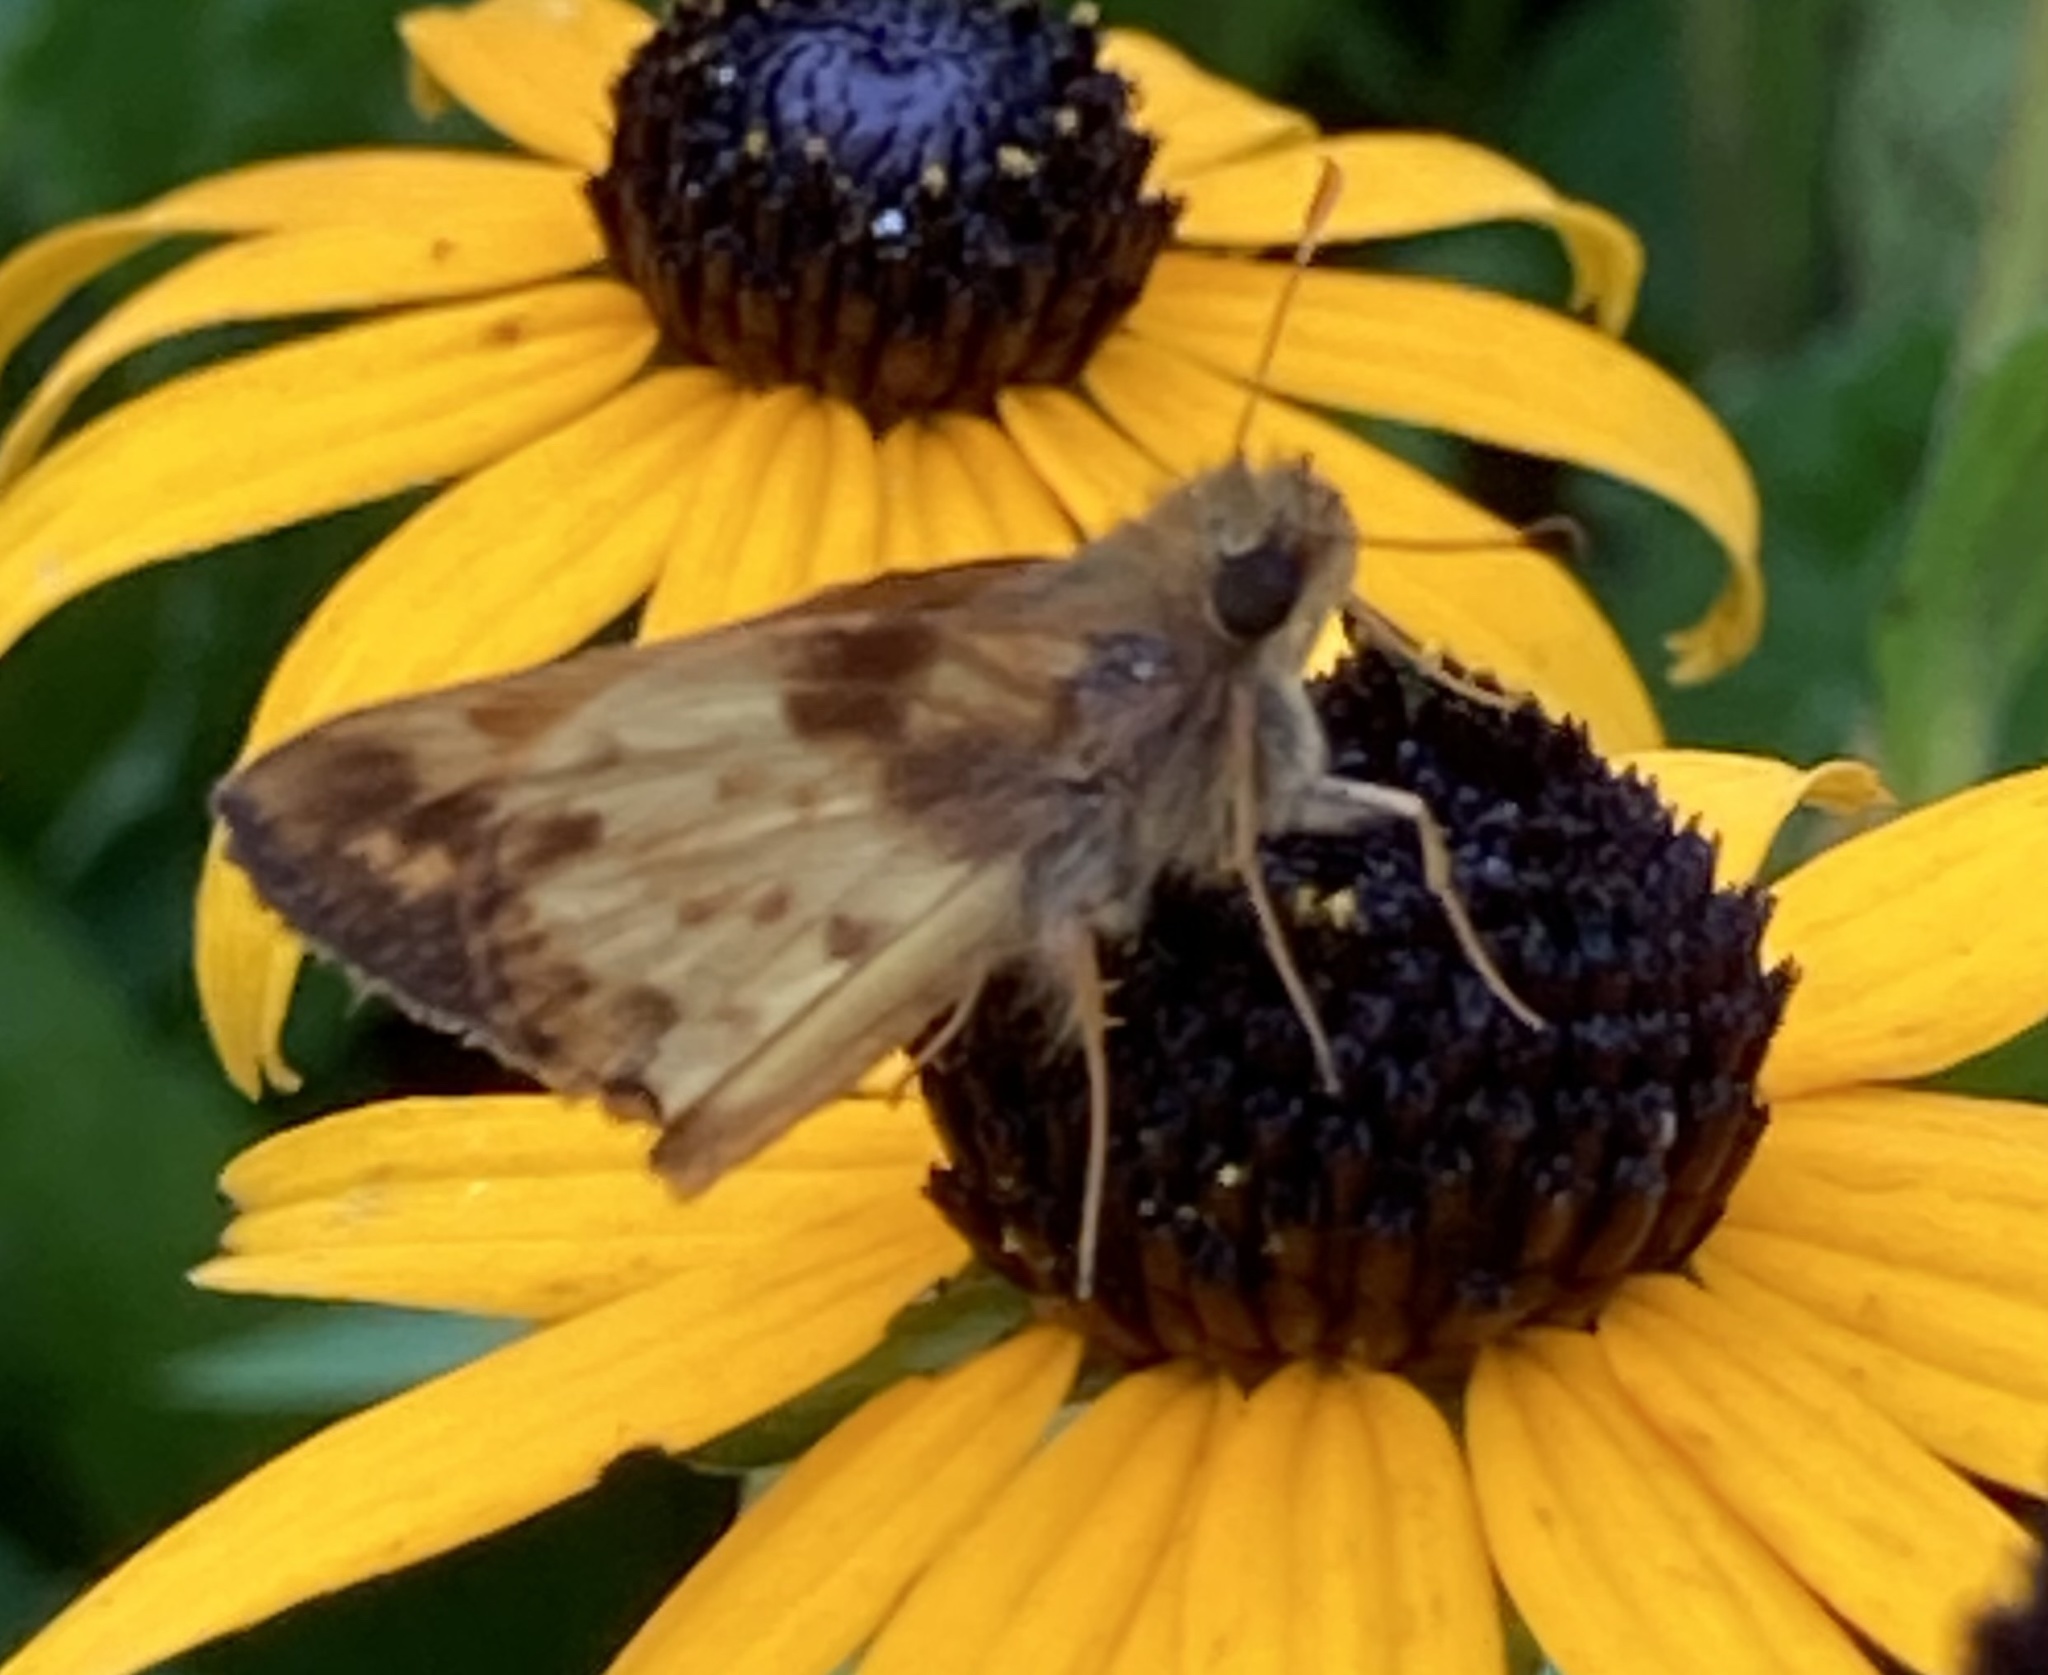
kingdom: Animalia
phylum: Arthropoda
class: Insecta
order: Lepidoptera
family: Hesperiidae
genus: Lon
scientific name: Lon zabulon
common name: Zabulon skipper
